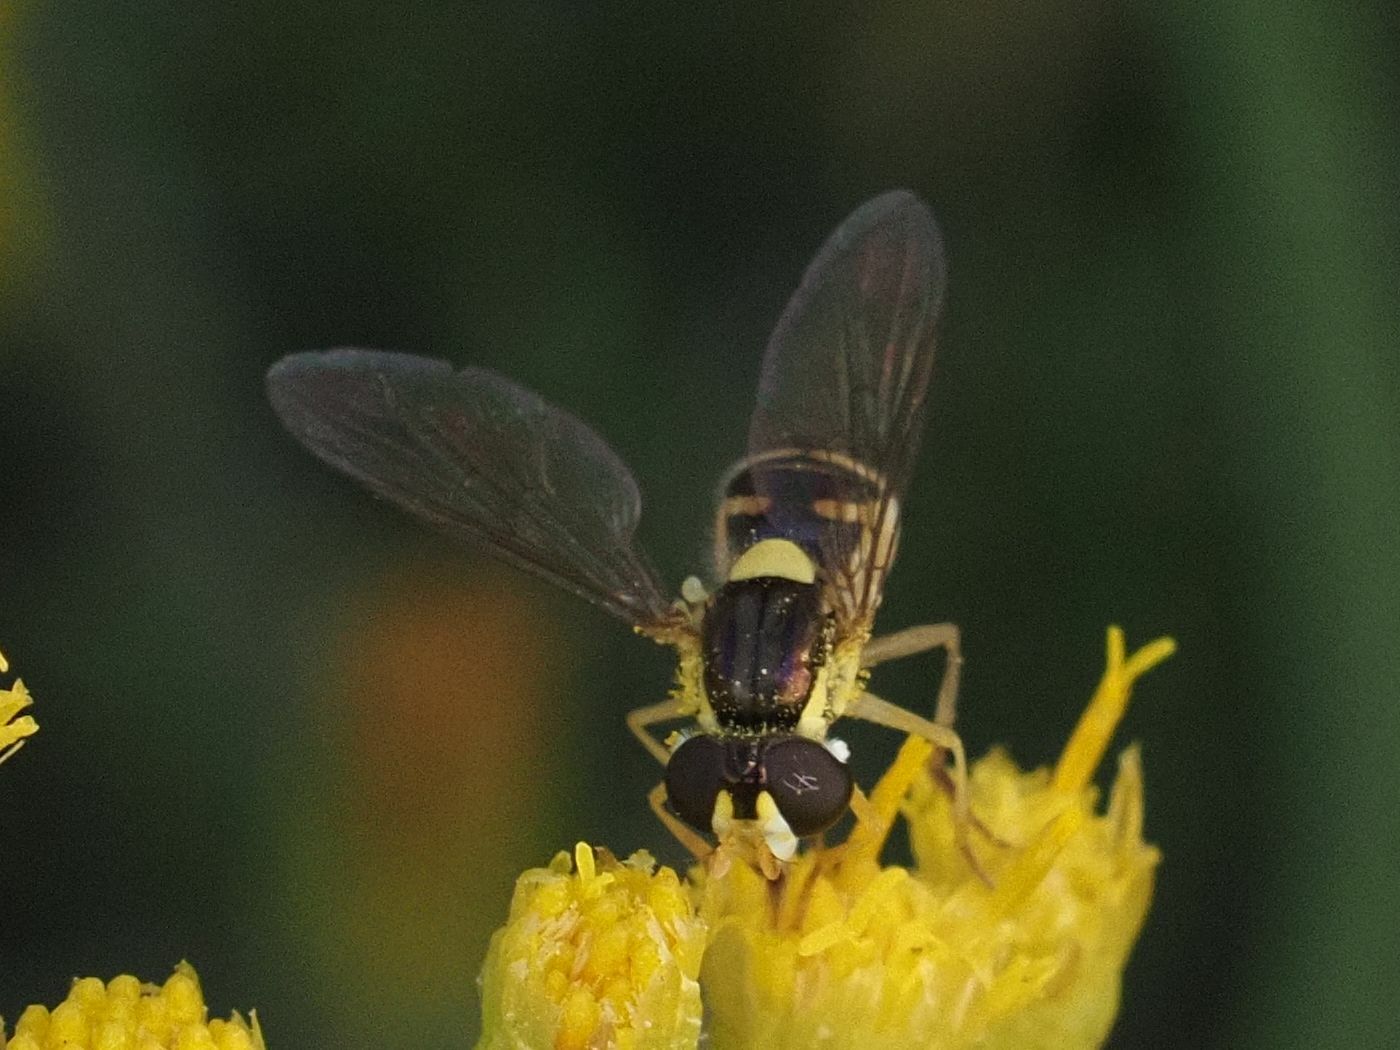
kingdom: Animalia
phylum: Arthropoda
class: Insecta
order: Diptera
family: Syrphidae
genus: Sphaerophoria
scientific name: Sphaerophoria rueppellii
